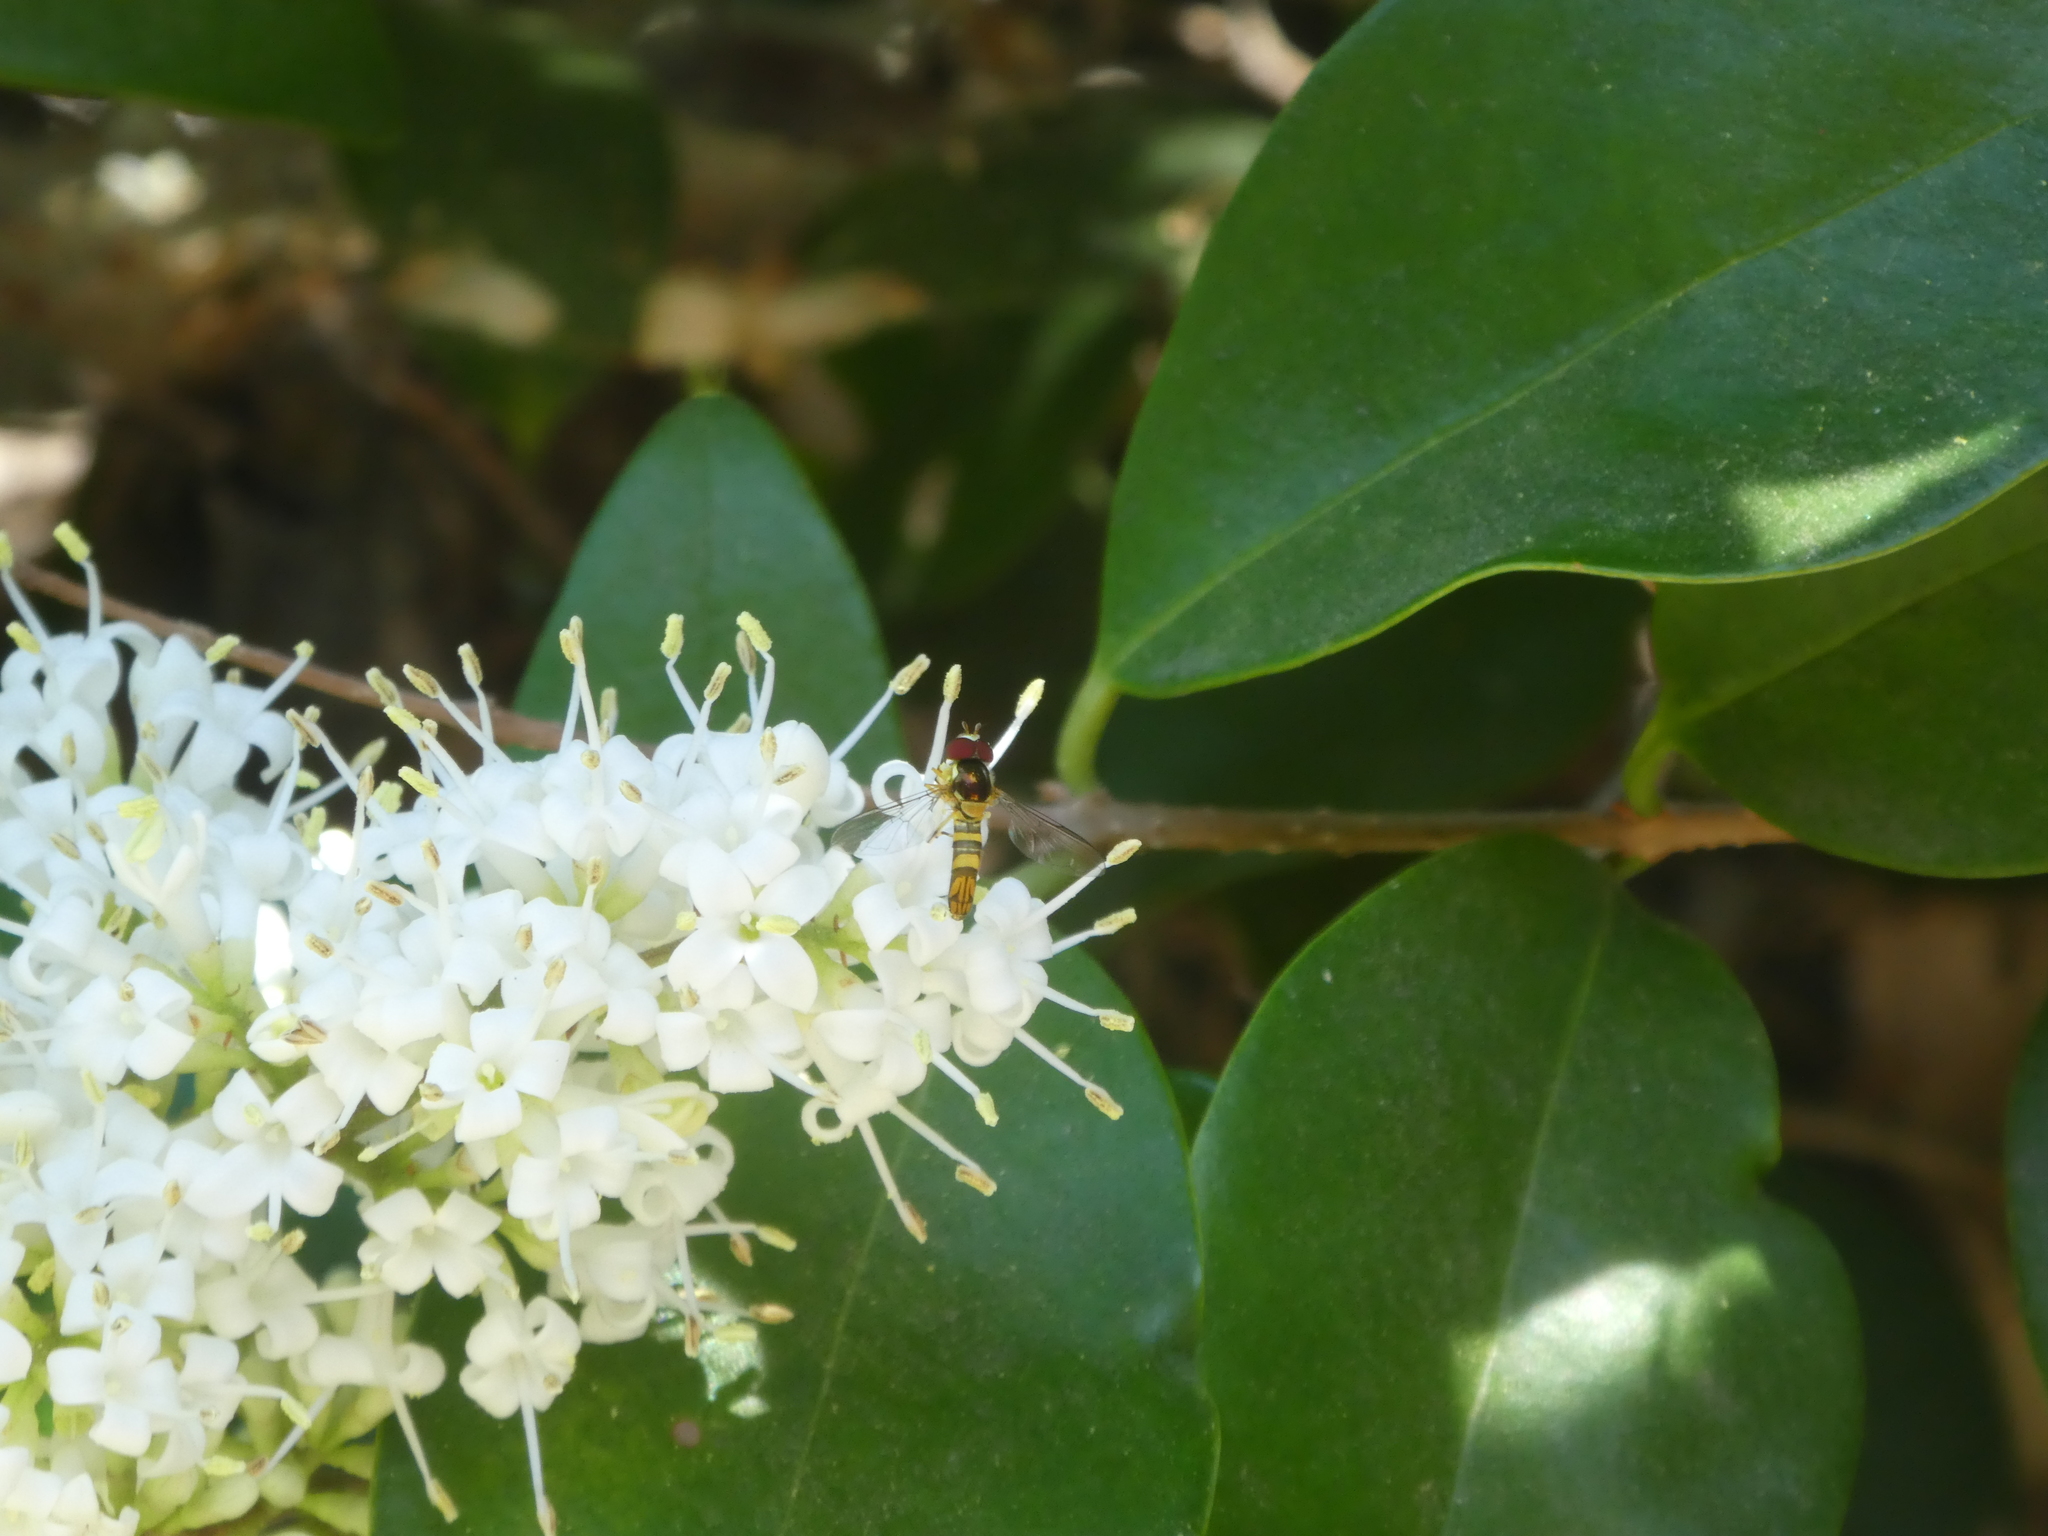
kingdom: Animalia
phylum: Arthropoda
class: Insecta
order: Diptera
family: Syrphidae
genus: Allograpta
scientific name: Allograpta obliqua
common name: Common oblique syrphid
